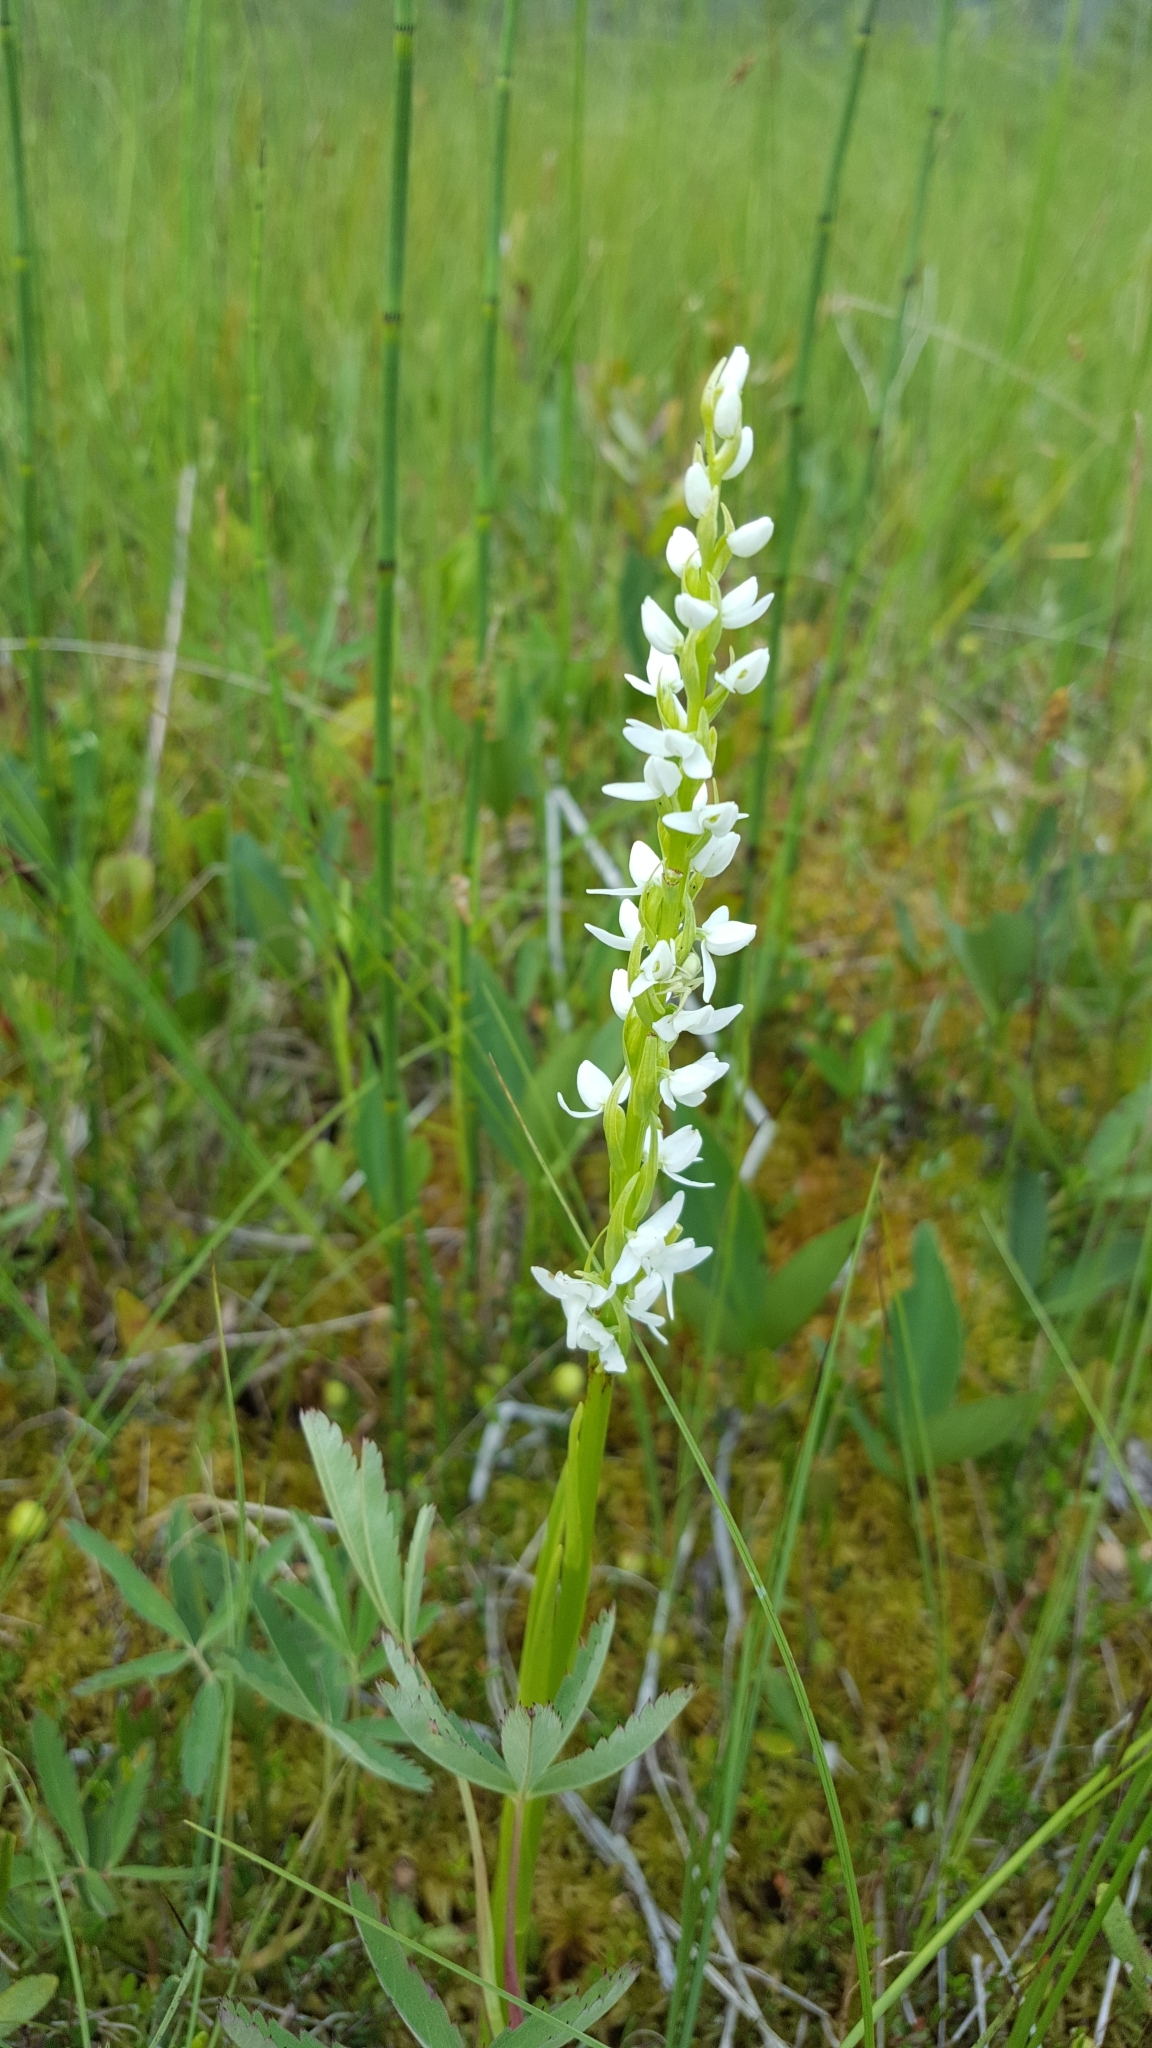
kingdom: Plantae
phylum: Tracheophyta
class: Liliopsida
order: Asparagales
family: Orchidaceae
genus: Platanthera
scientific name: Platanthera dilatata
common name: Bog candles
